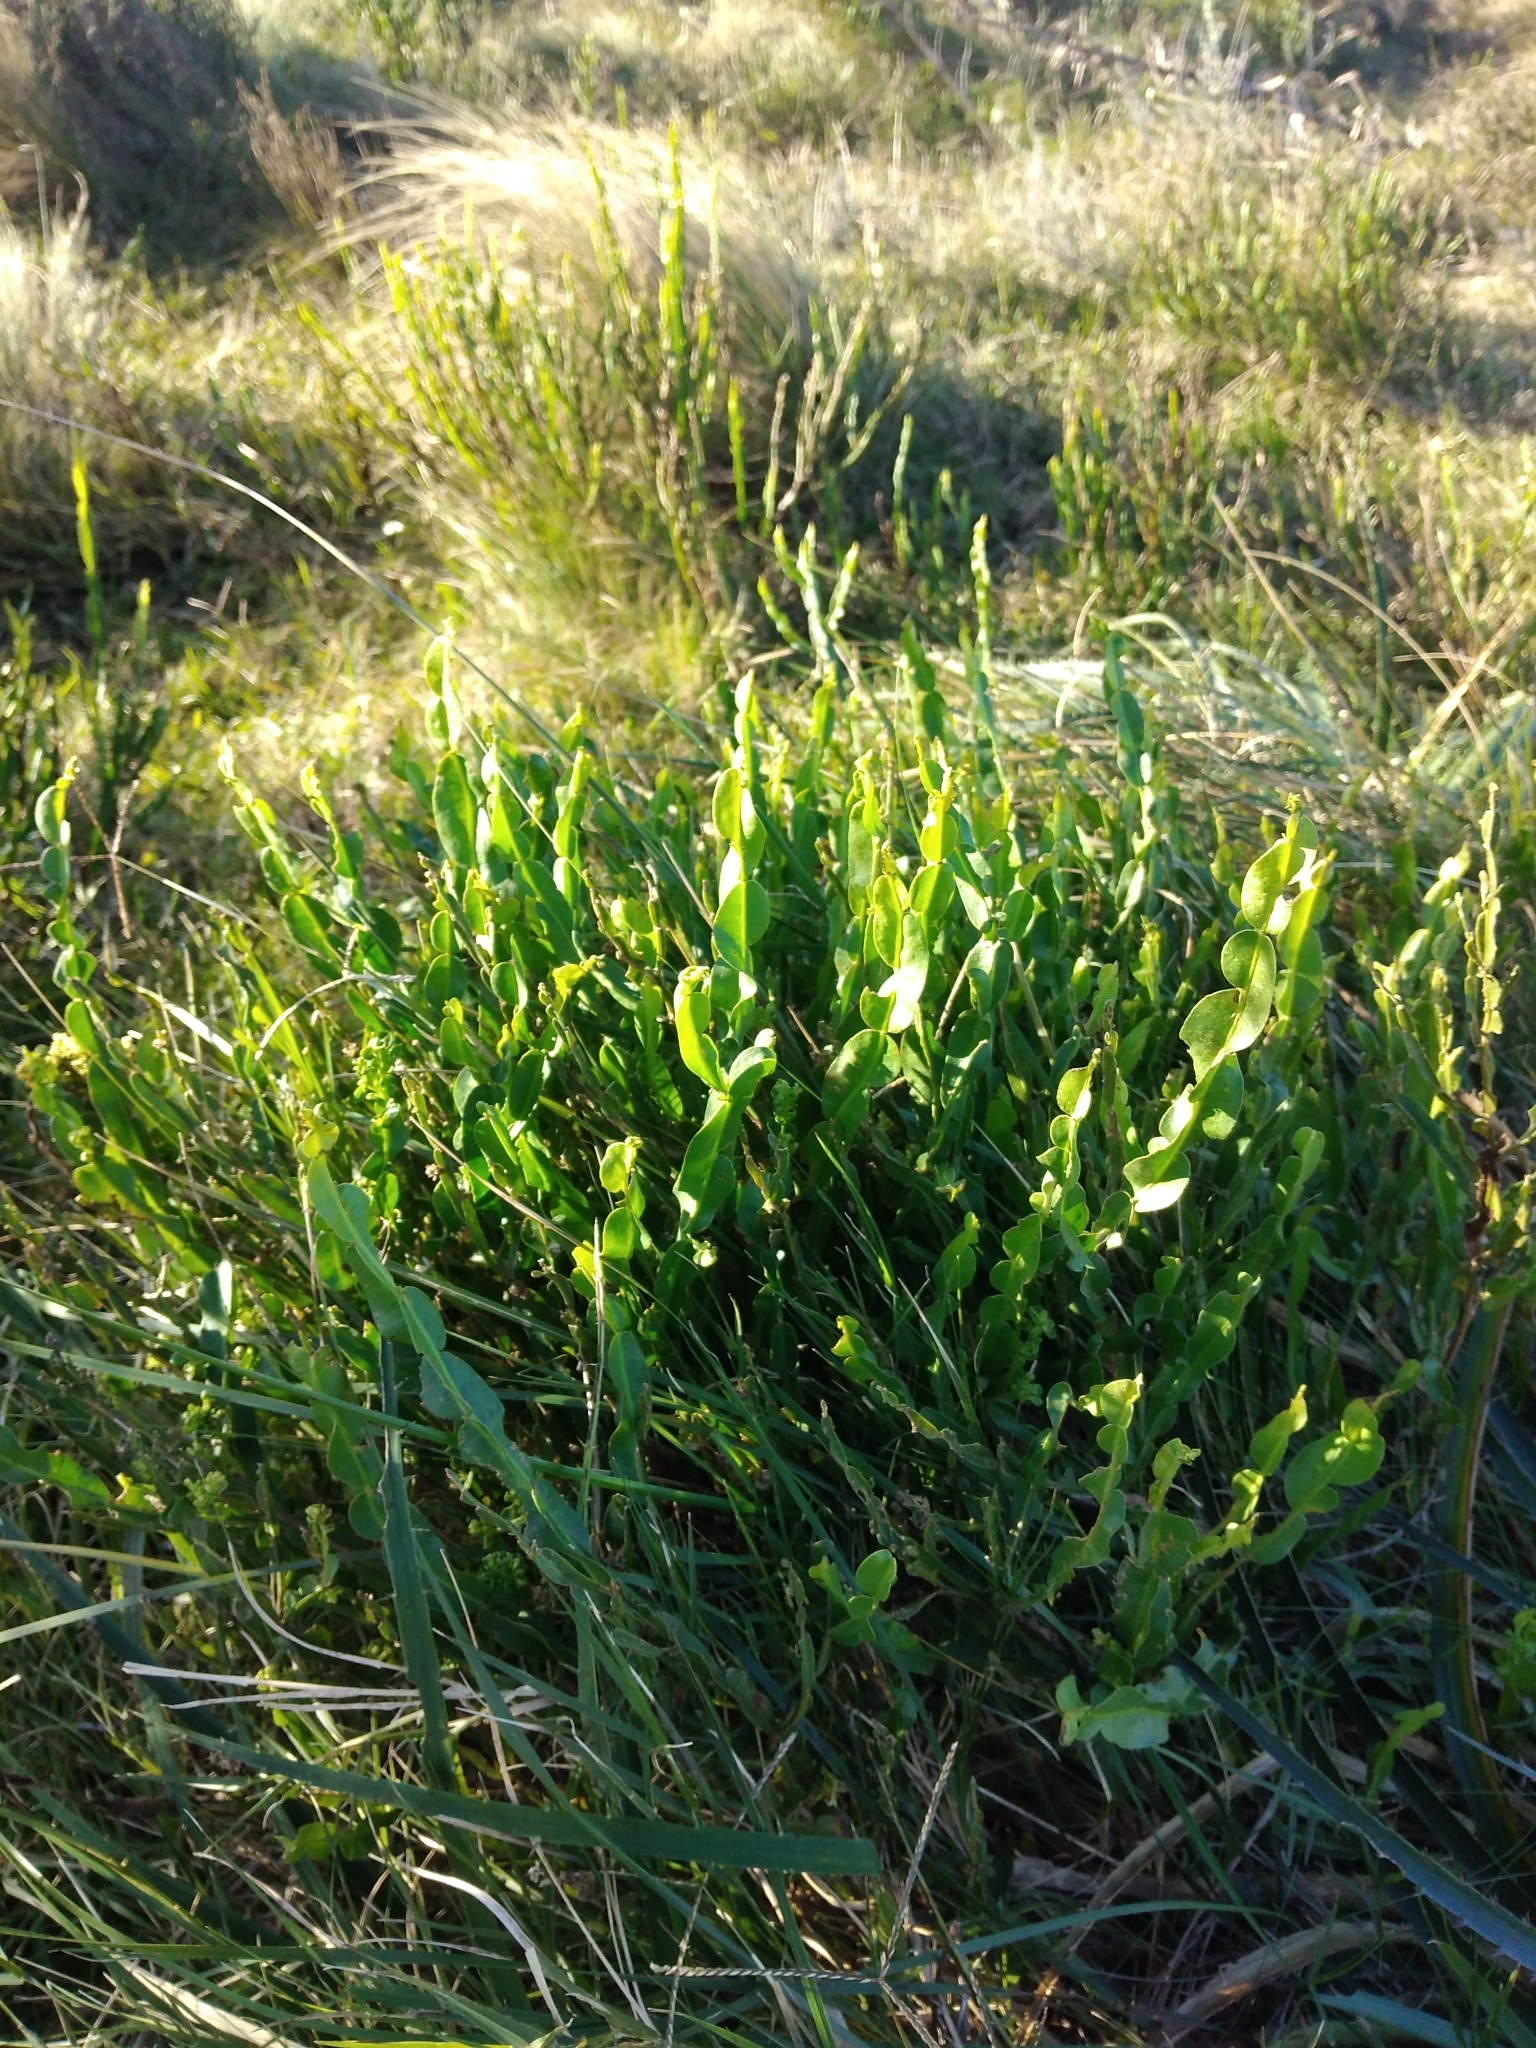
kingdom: Plantae
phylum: Tracheophyta
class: Magnoliopsida
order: Asterales
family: Asteraceae
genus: Baccharis
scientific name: Baccharis trimera
